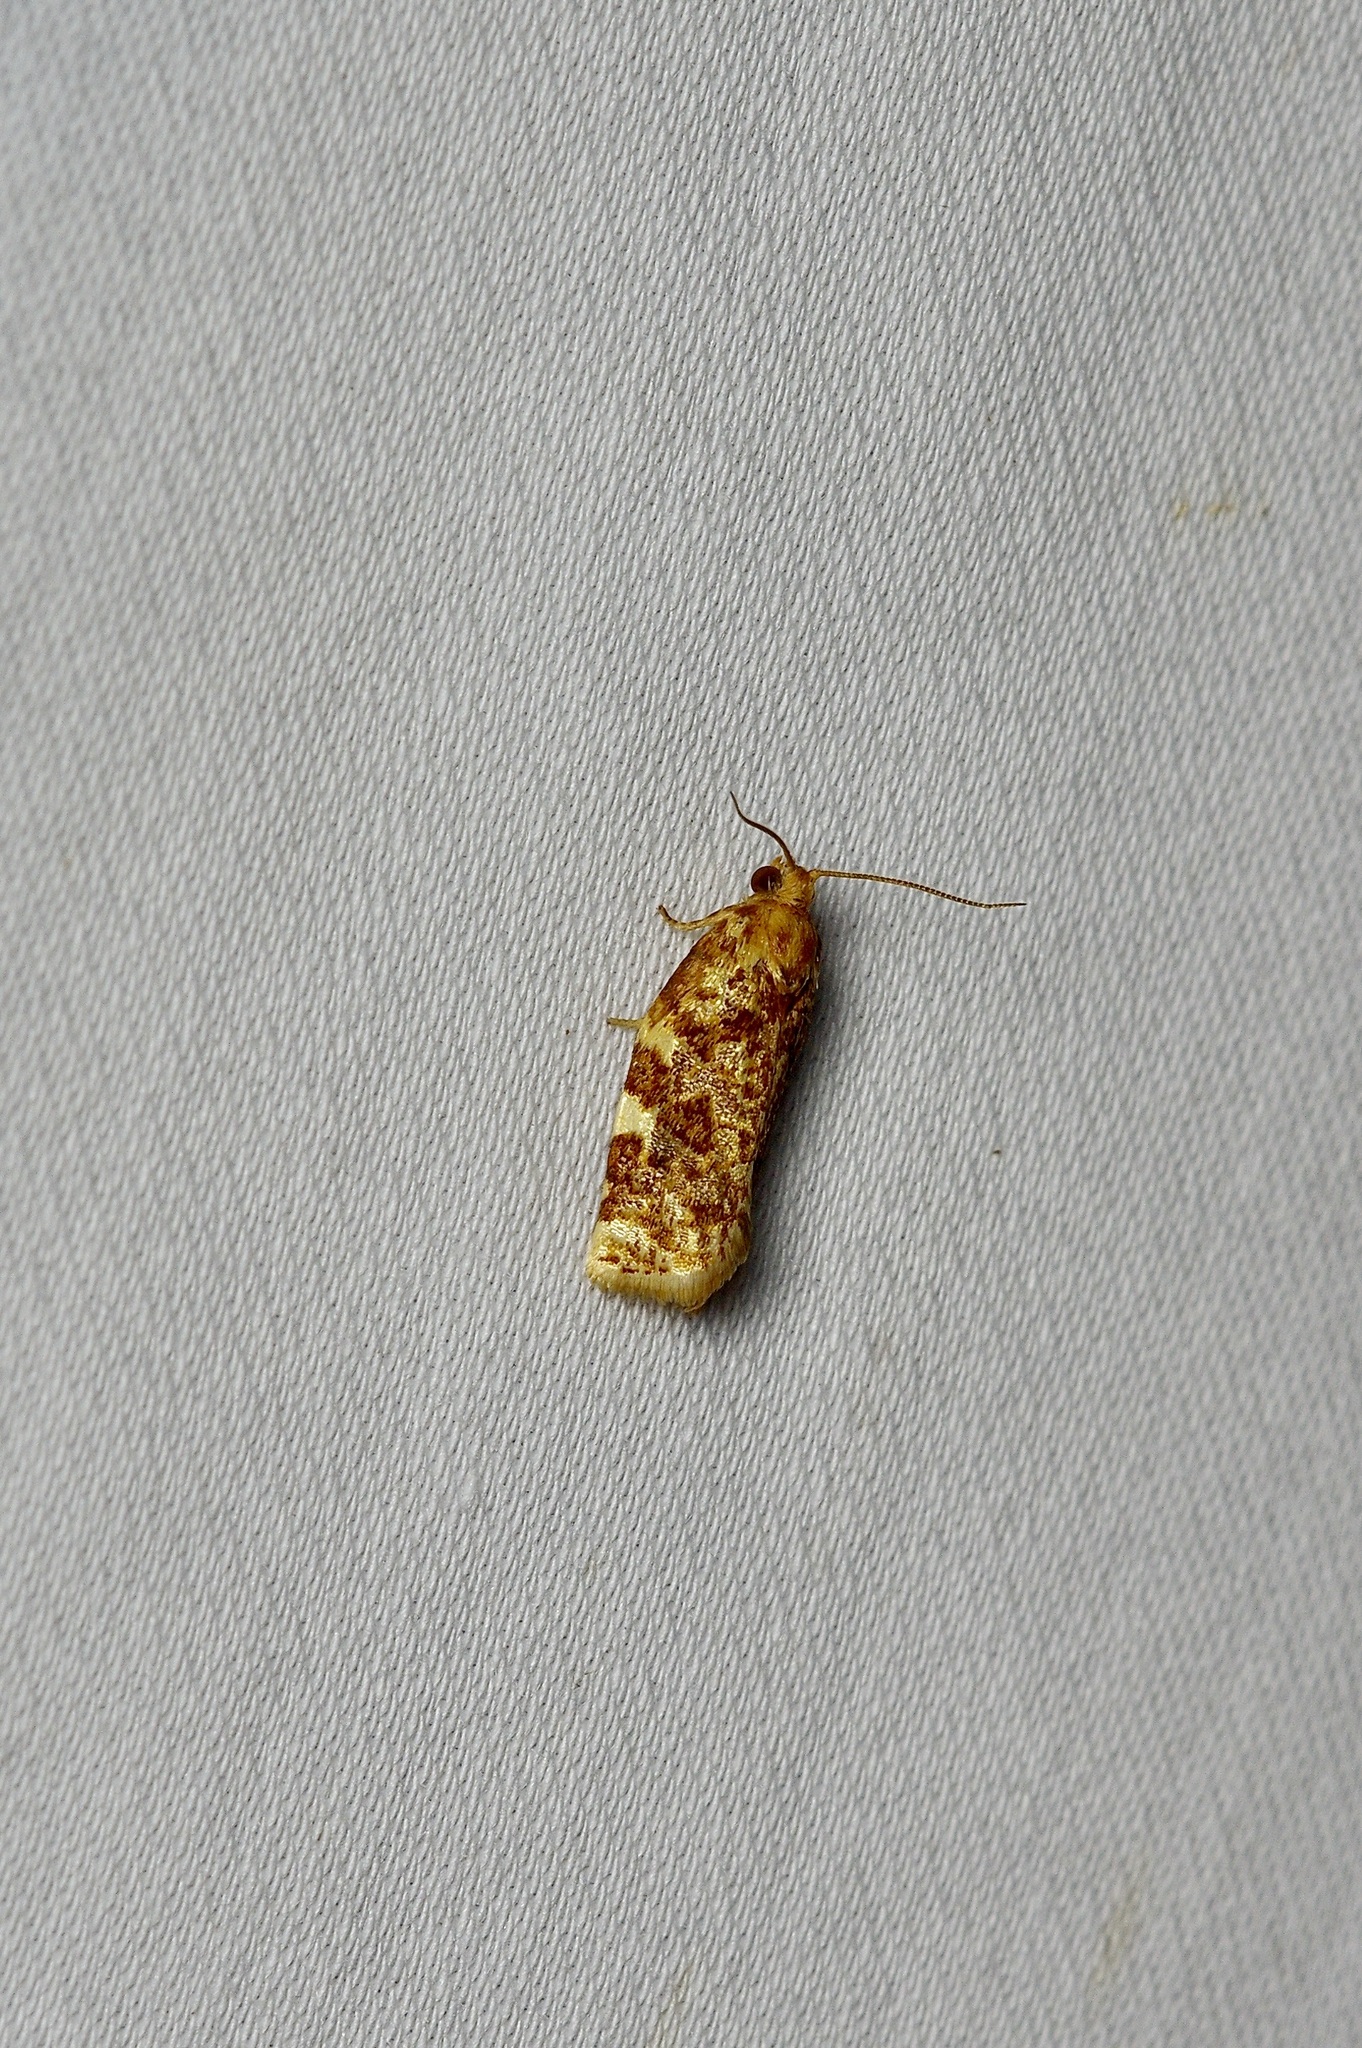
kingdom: Animalia
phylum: Arthropoda
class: Insecta
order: Lepidoptera
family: Tortricidae
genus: Archips
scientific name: Archips argyrospila
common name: Fruit-tree leafroller moth
